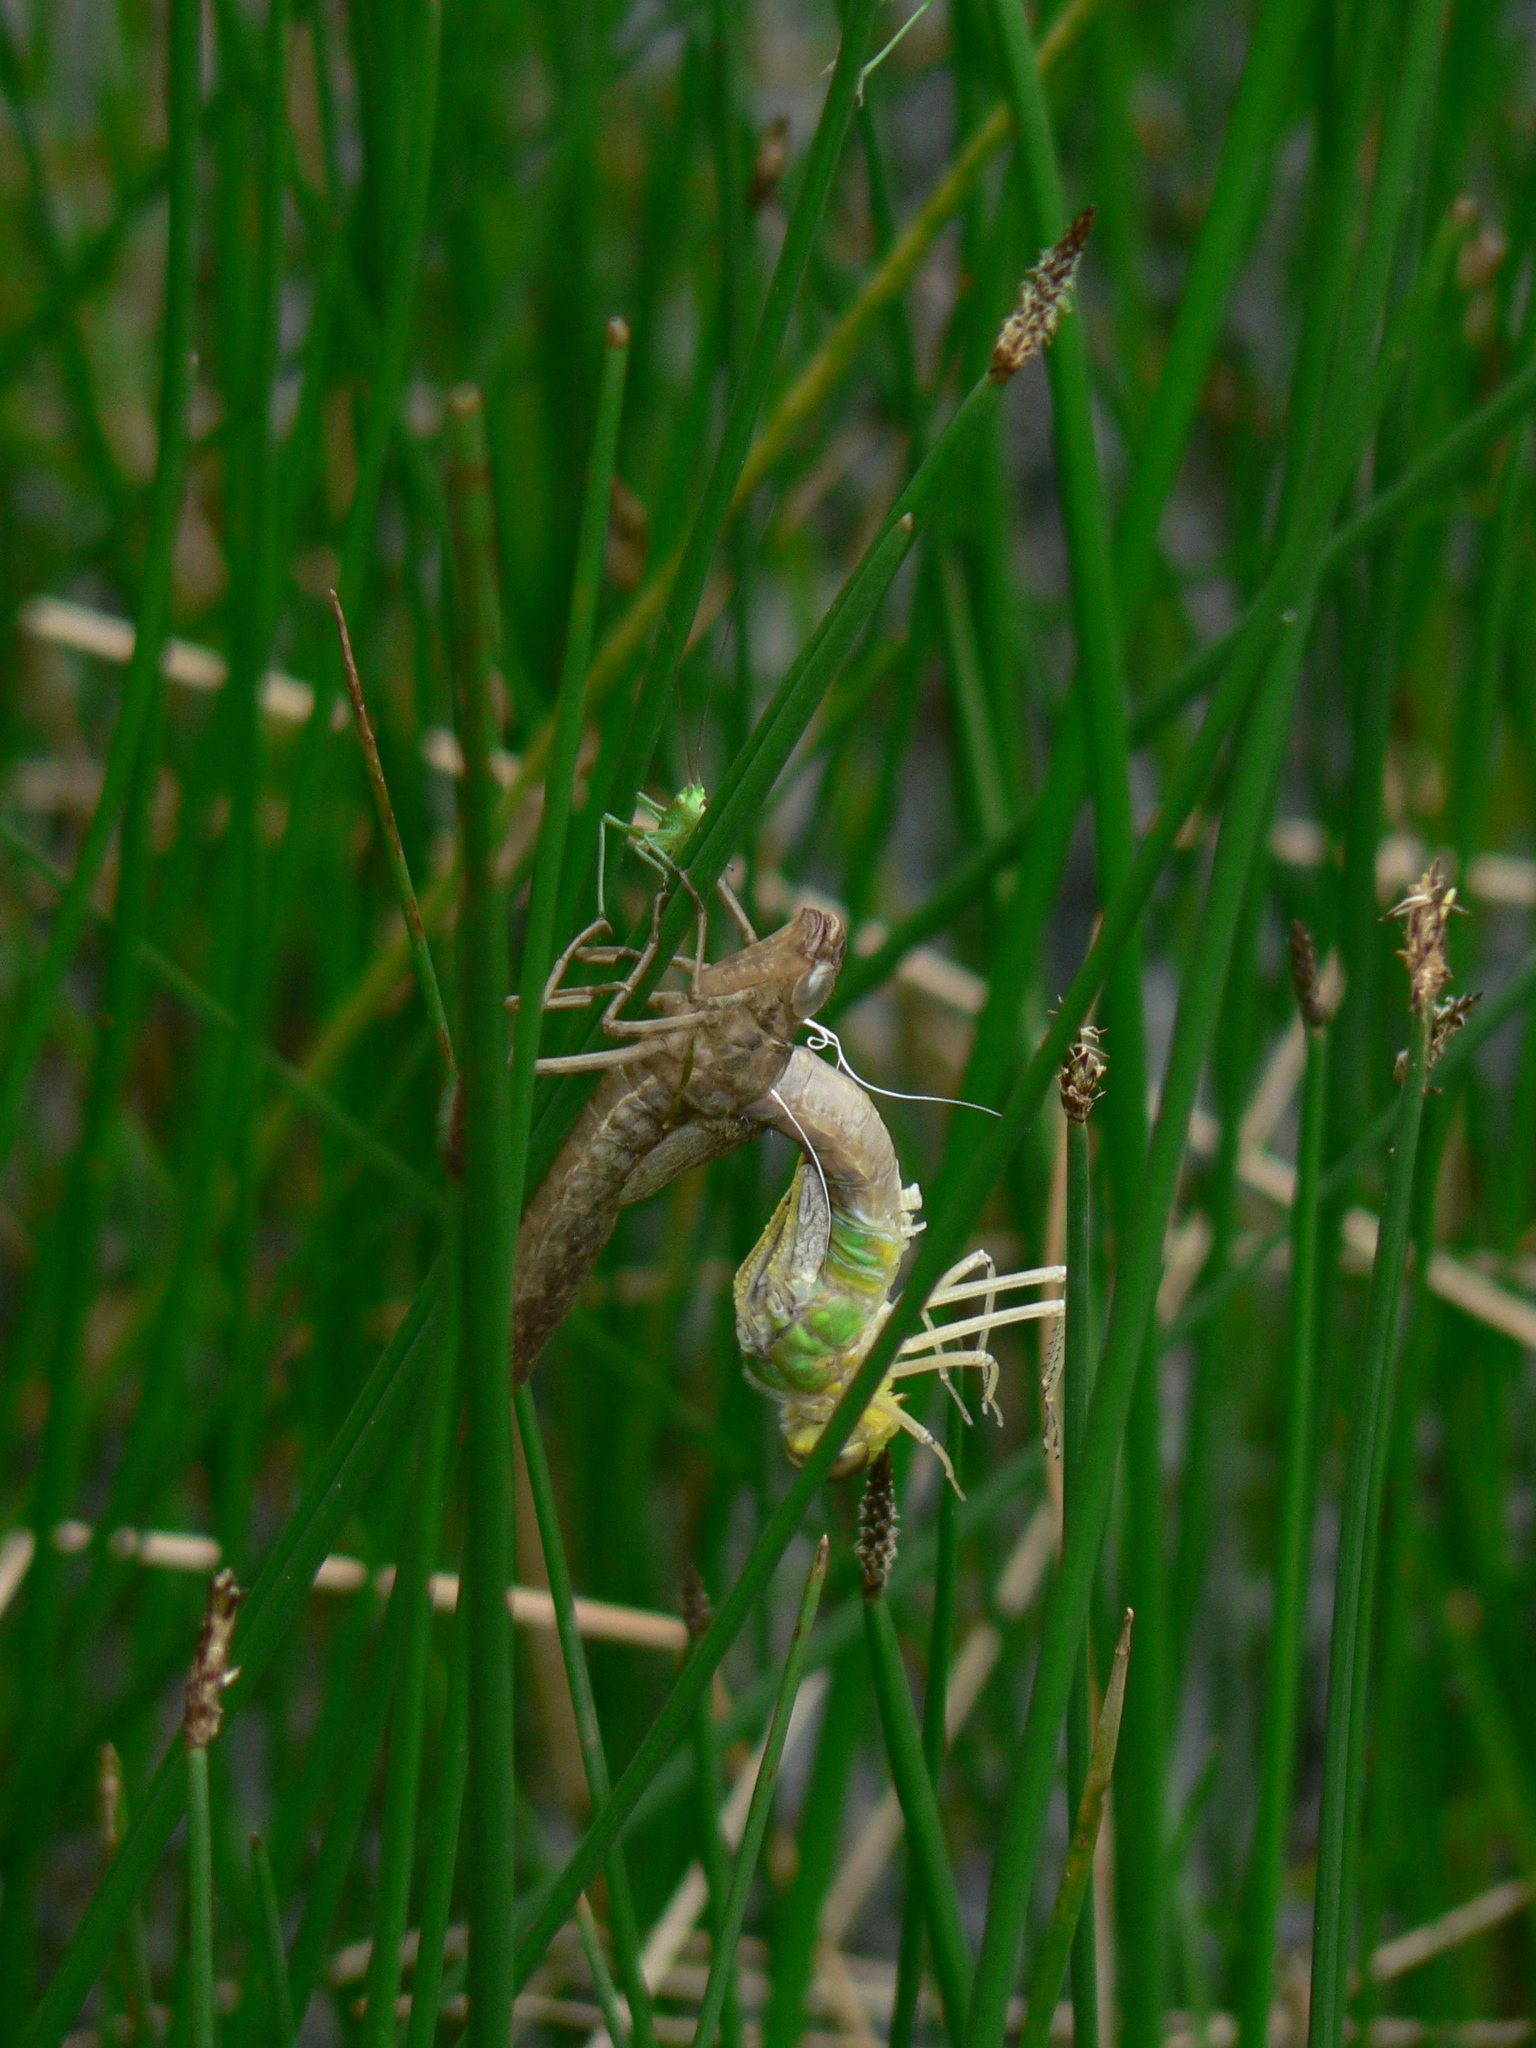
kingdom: Animalia
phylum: Arthropoda
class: Insecta
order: Odonata
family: Aeshnidae
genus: Anax
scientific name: Anax imperator
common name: Emperor dragonfly
